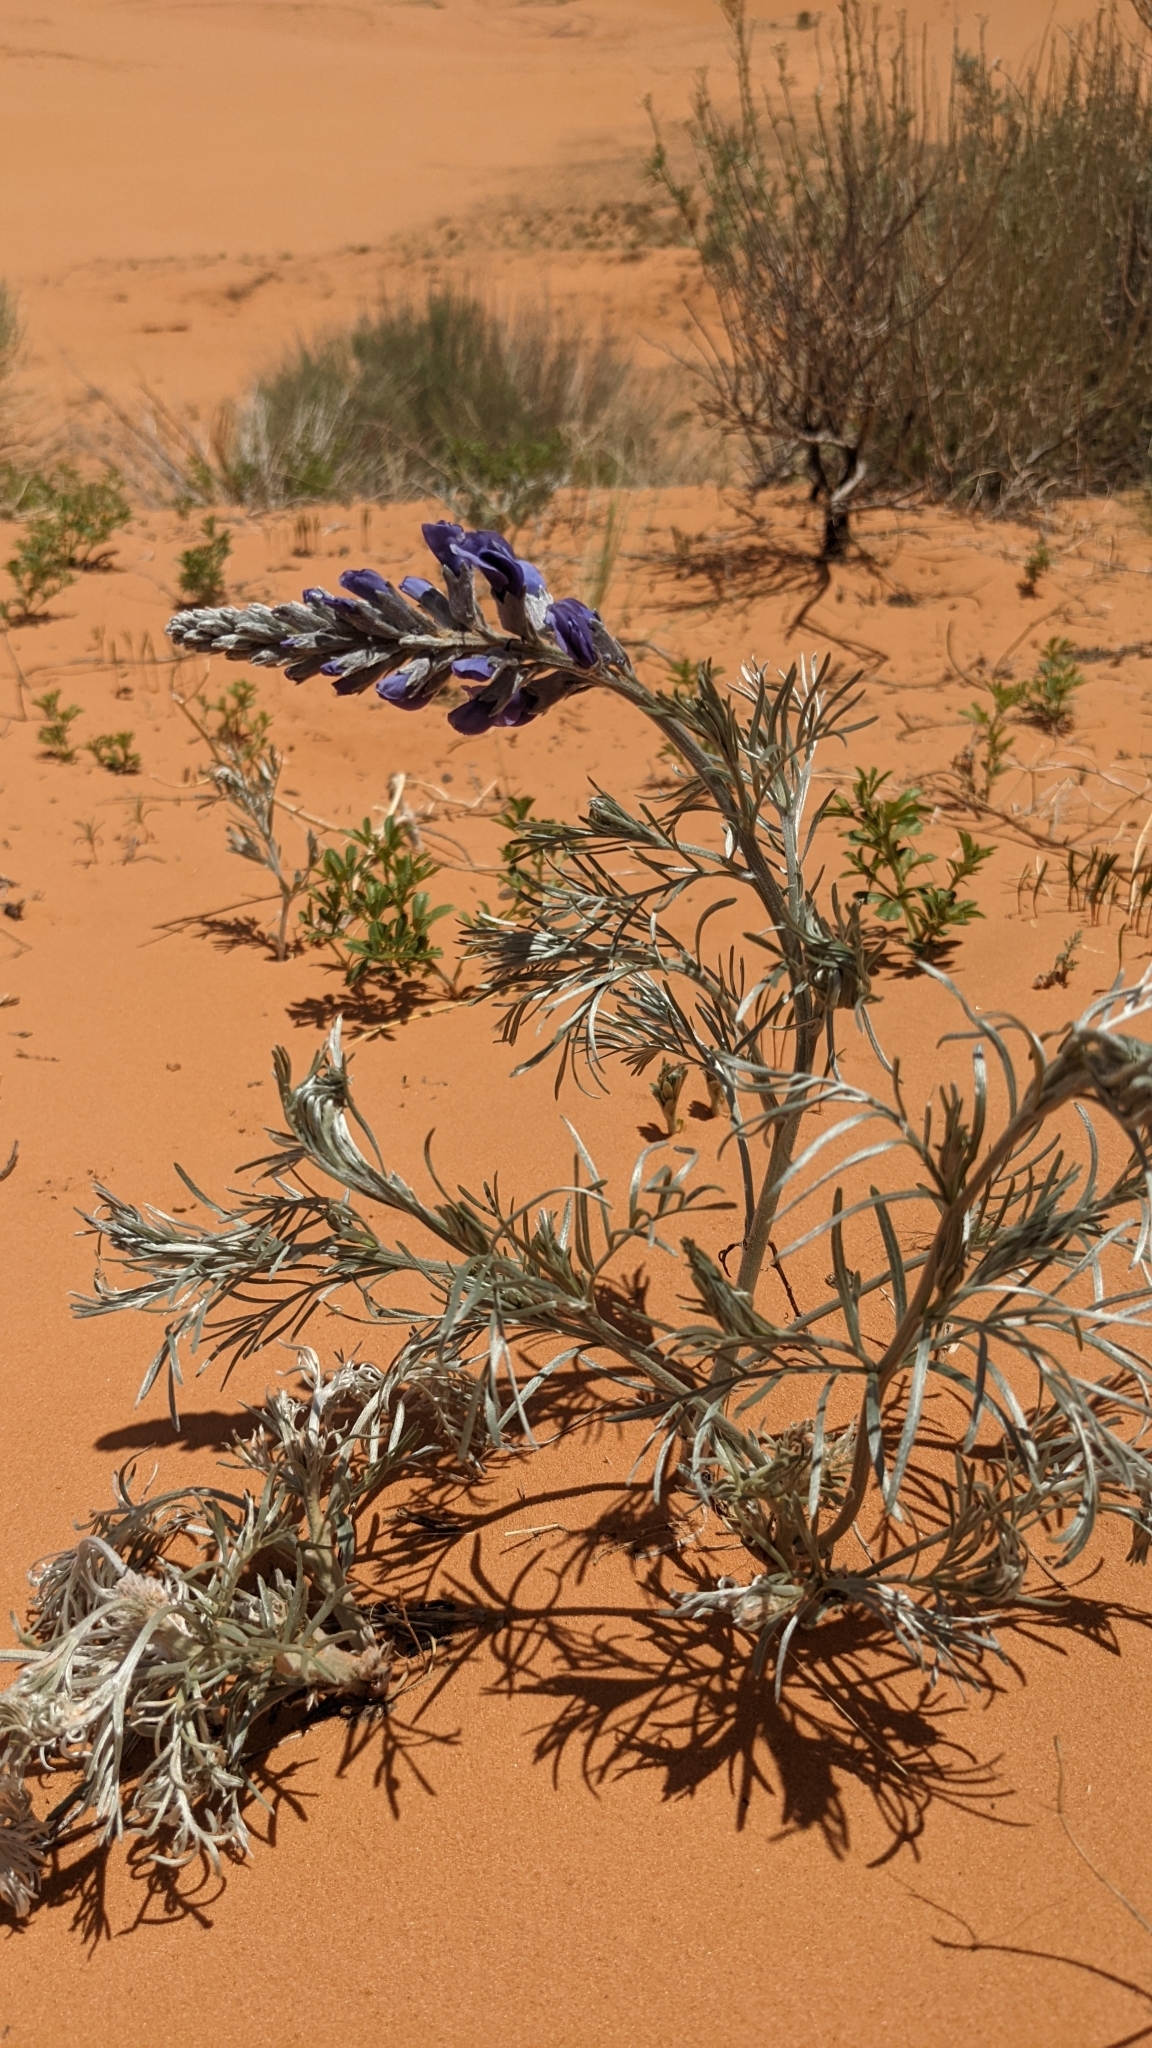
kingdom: Plantae
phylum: Tracheophyta
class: Magnoliopsida
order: Fabales
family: Fabaceae
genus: Sophora
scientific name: Sophora stenophylla
